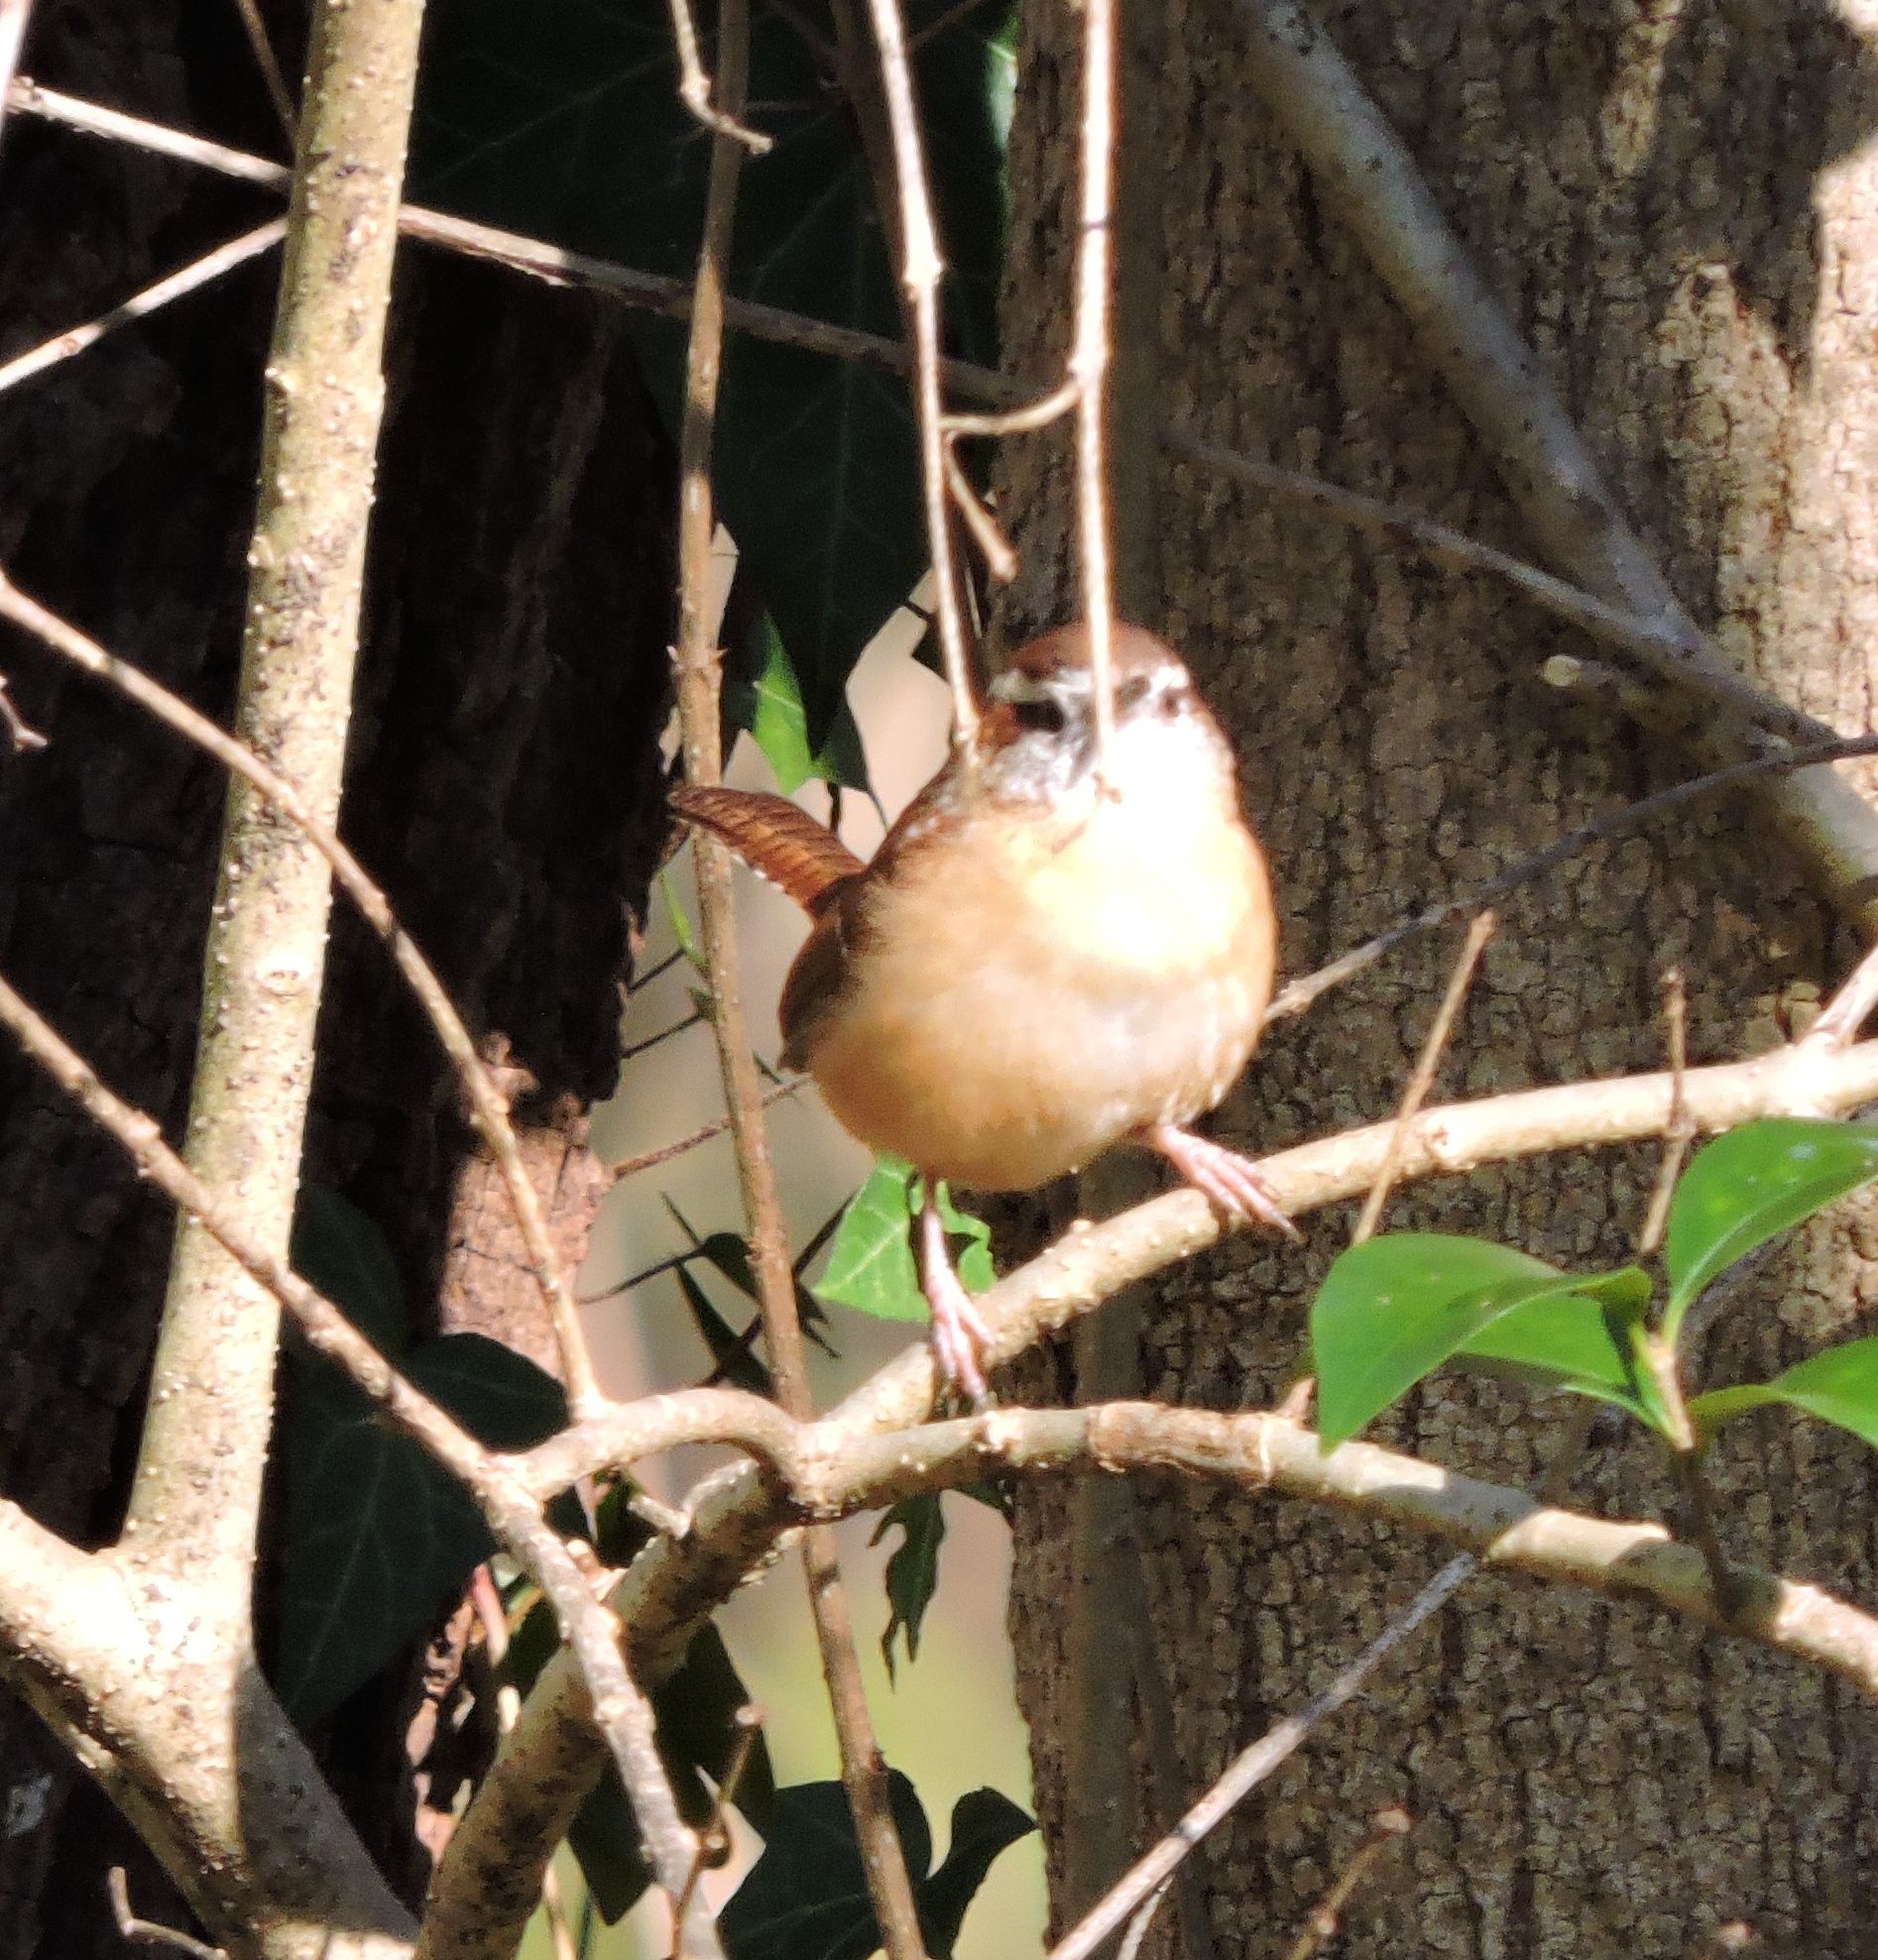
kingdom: Animalia
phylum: Chordata
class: Aves
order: Passeriformes
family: Troglodytidae
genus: Thryothorus
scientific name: Thryothorus ludovicianus
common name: Carolina wren
